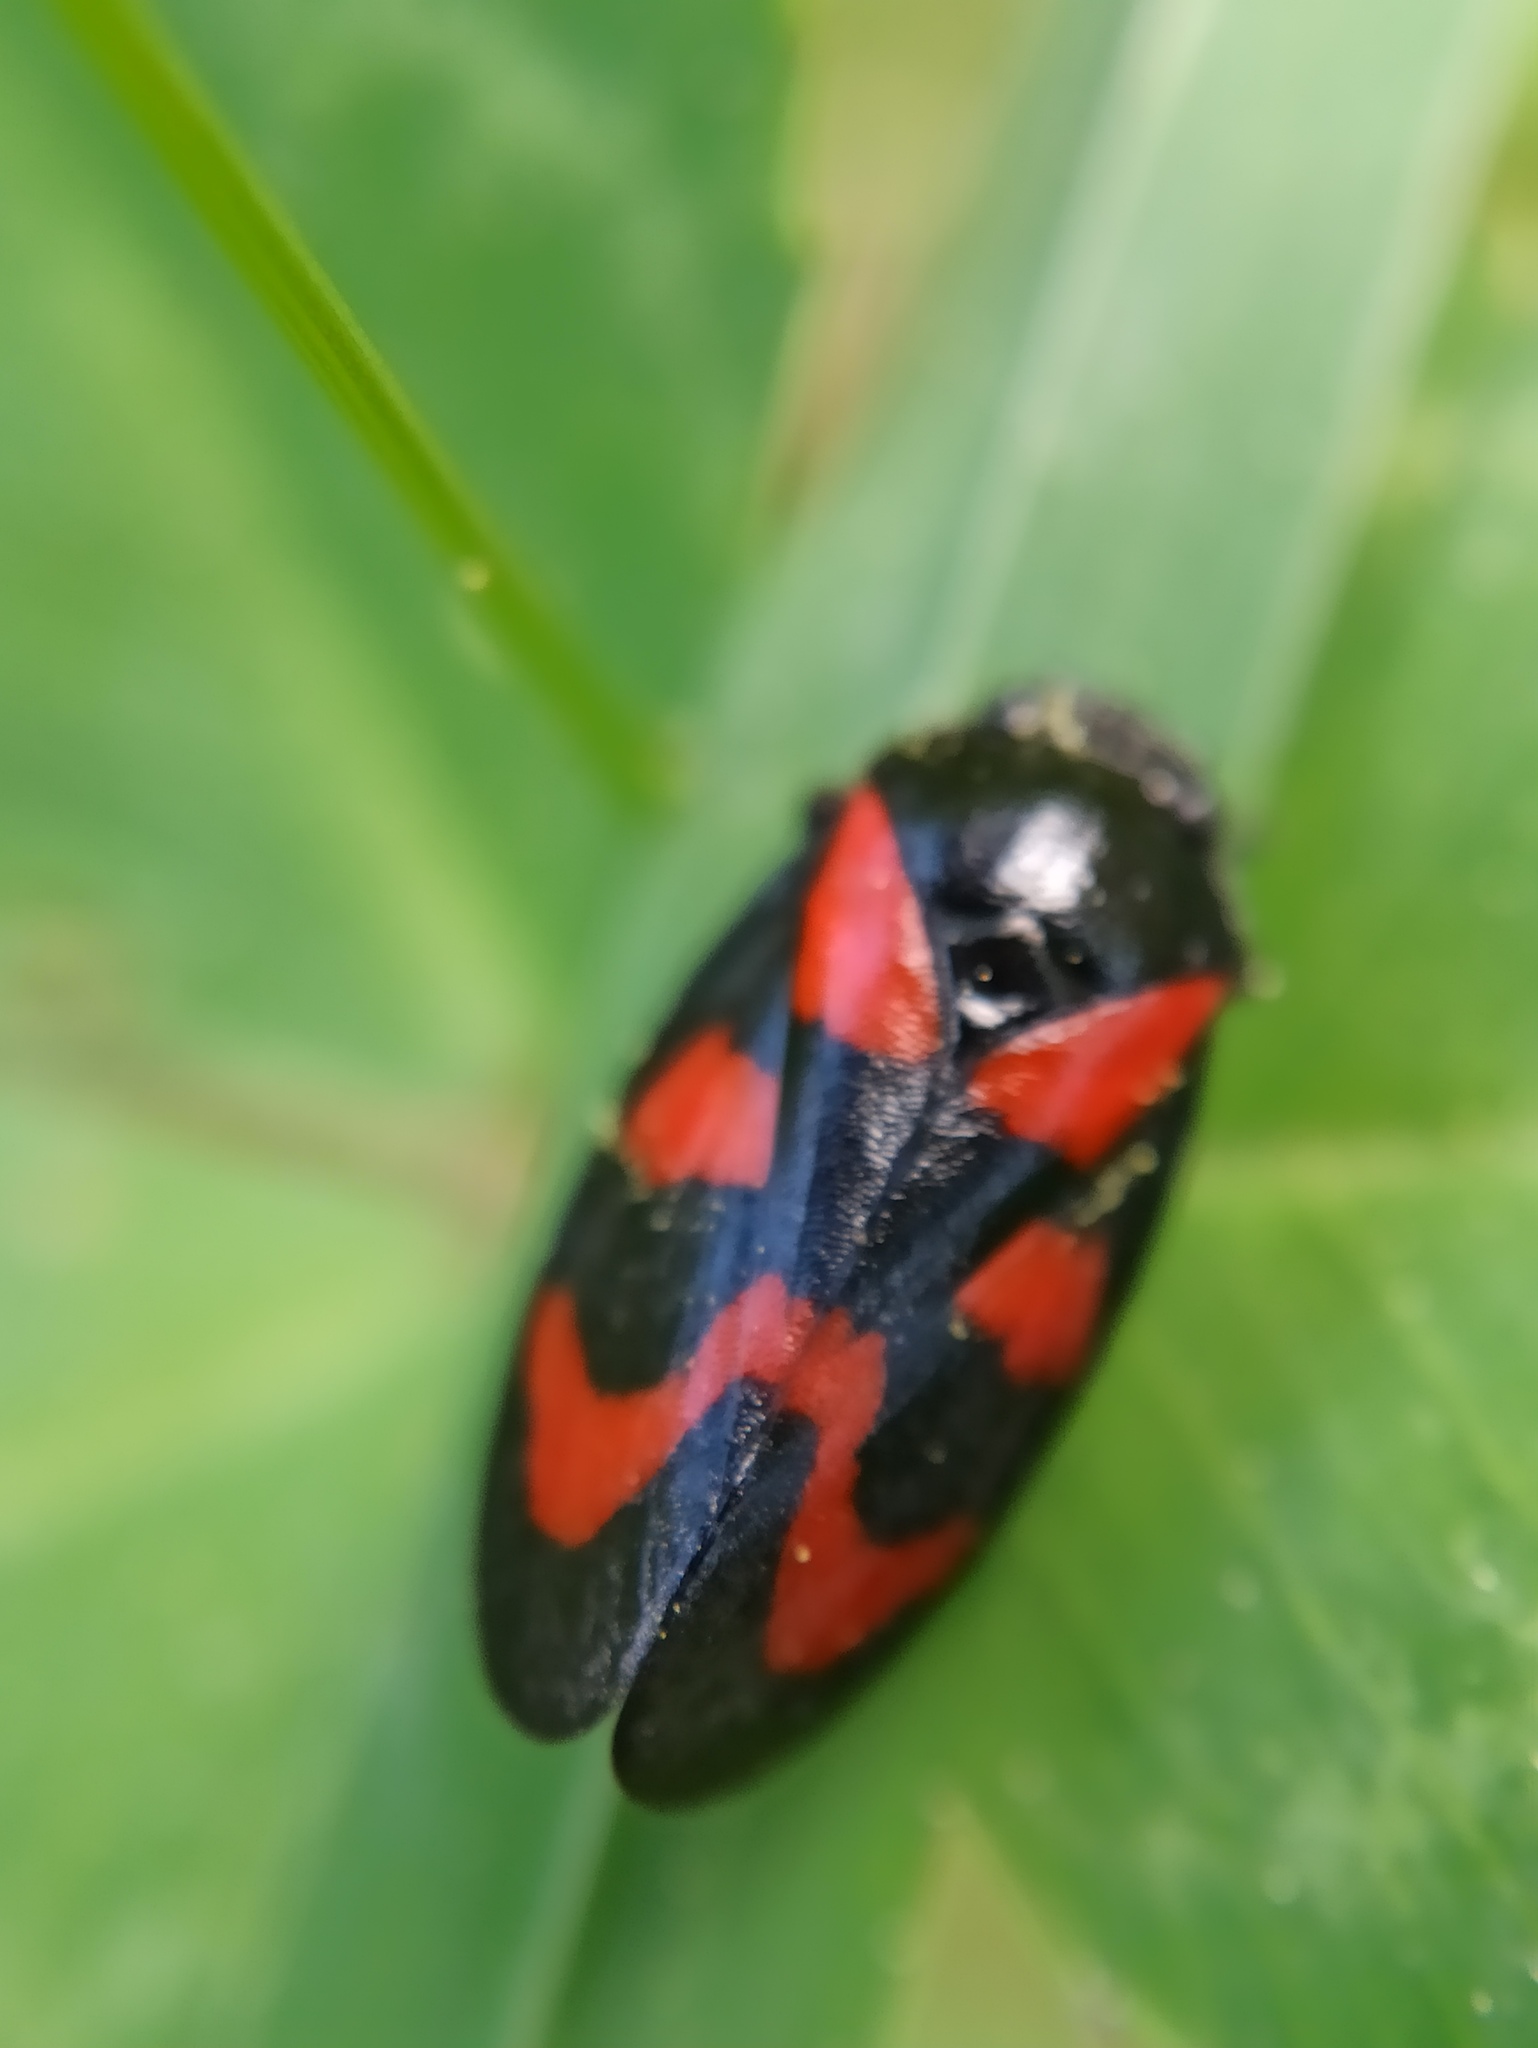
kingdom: Animalia
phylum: Arthropoda
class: Insecta
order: Hemiptera
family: Cercopidae
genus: Cercopis
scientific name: Cercopis vulnerata
